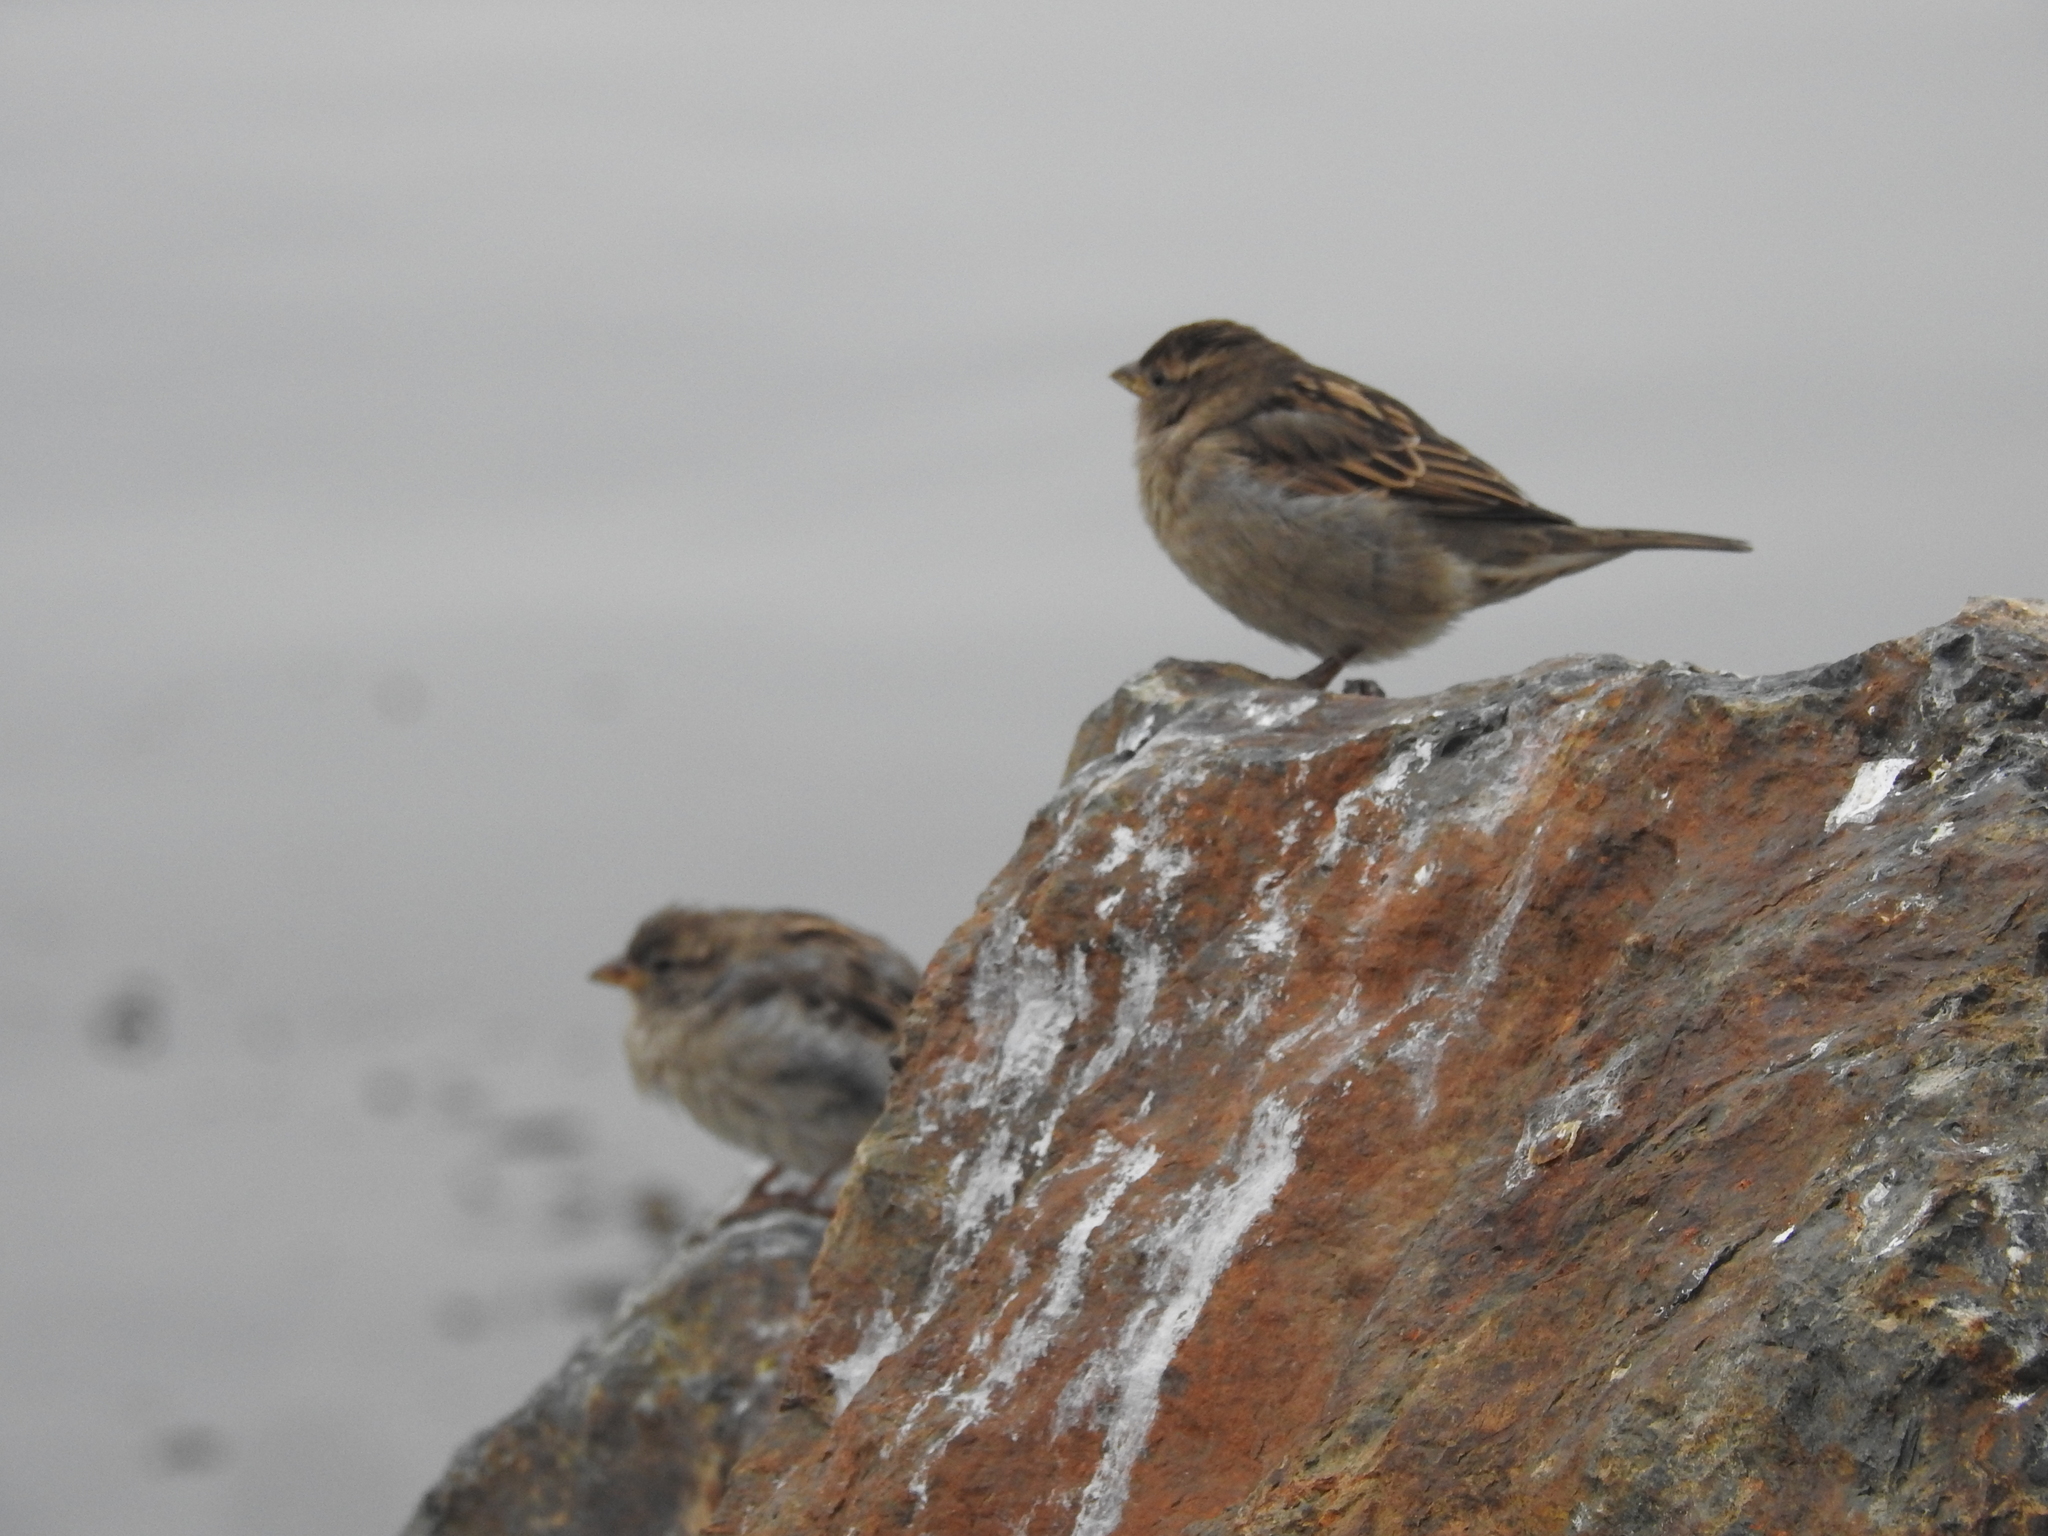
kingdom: Animalia
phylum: Chordata
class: Aves
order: Passeriformes
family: Passeridae
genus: Passer
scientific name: Passer domesticus
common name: House sparrow
